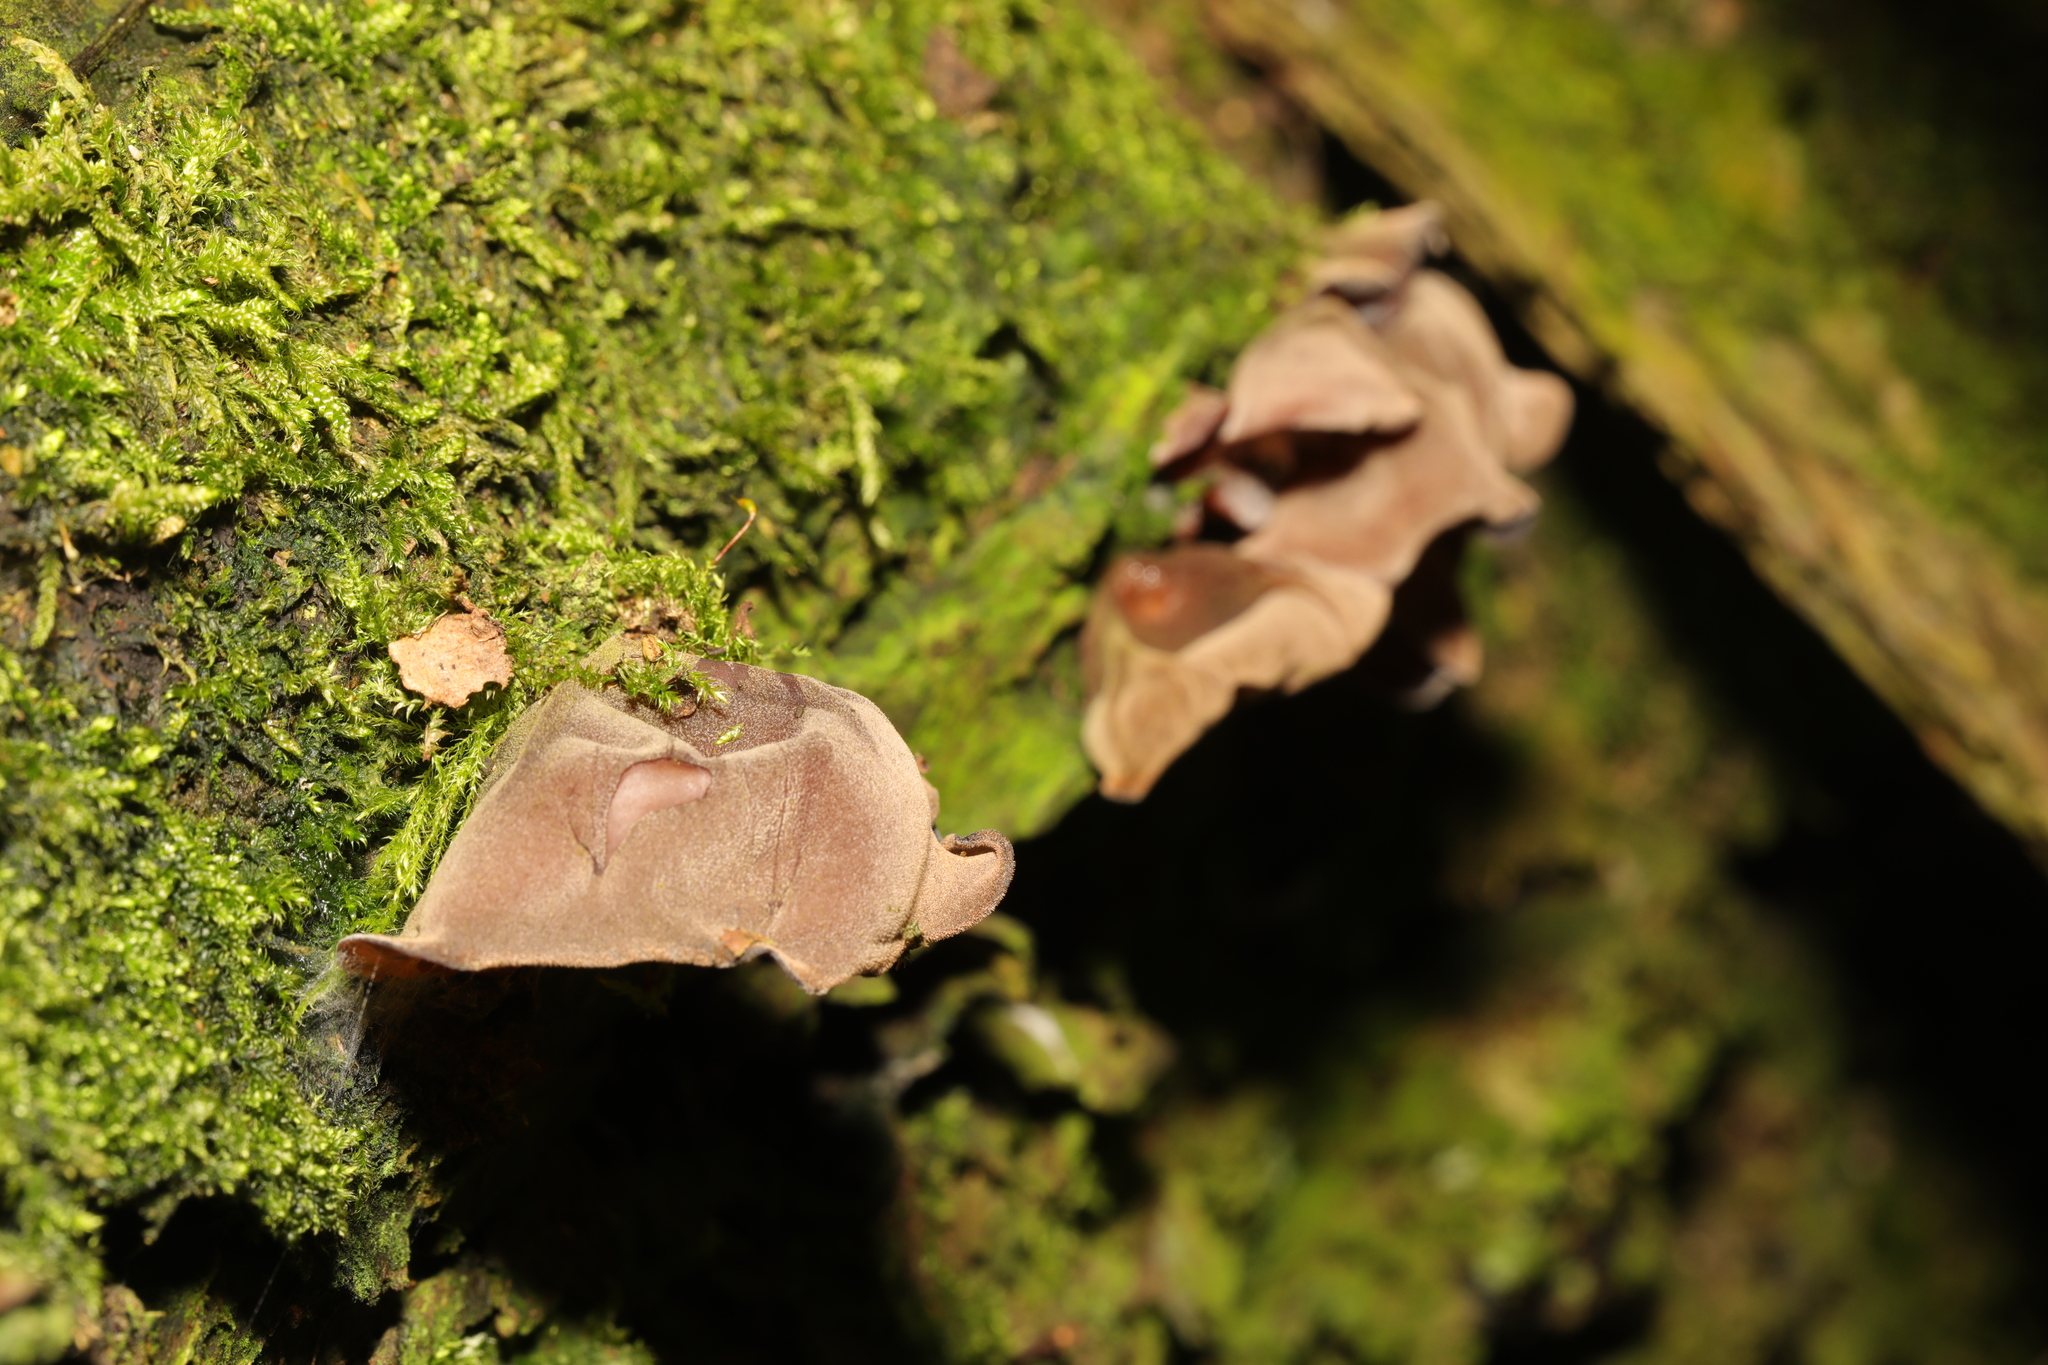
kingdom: Fungi
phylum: Basidiomycota
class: Agaricomycetes
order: Auriculariales
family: Auriculariaceae
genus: Auricularia
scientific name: Auricularia auricula-judae
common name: Jelly ear
